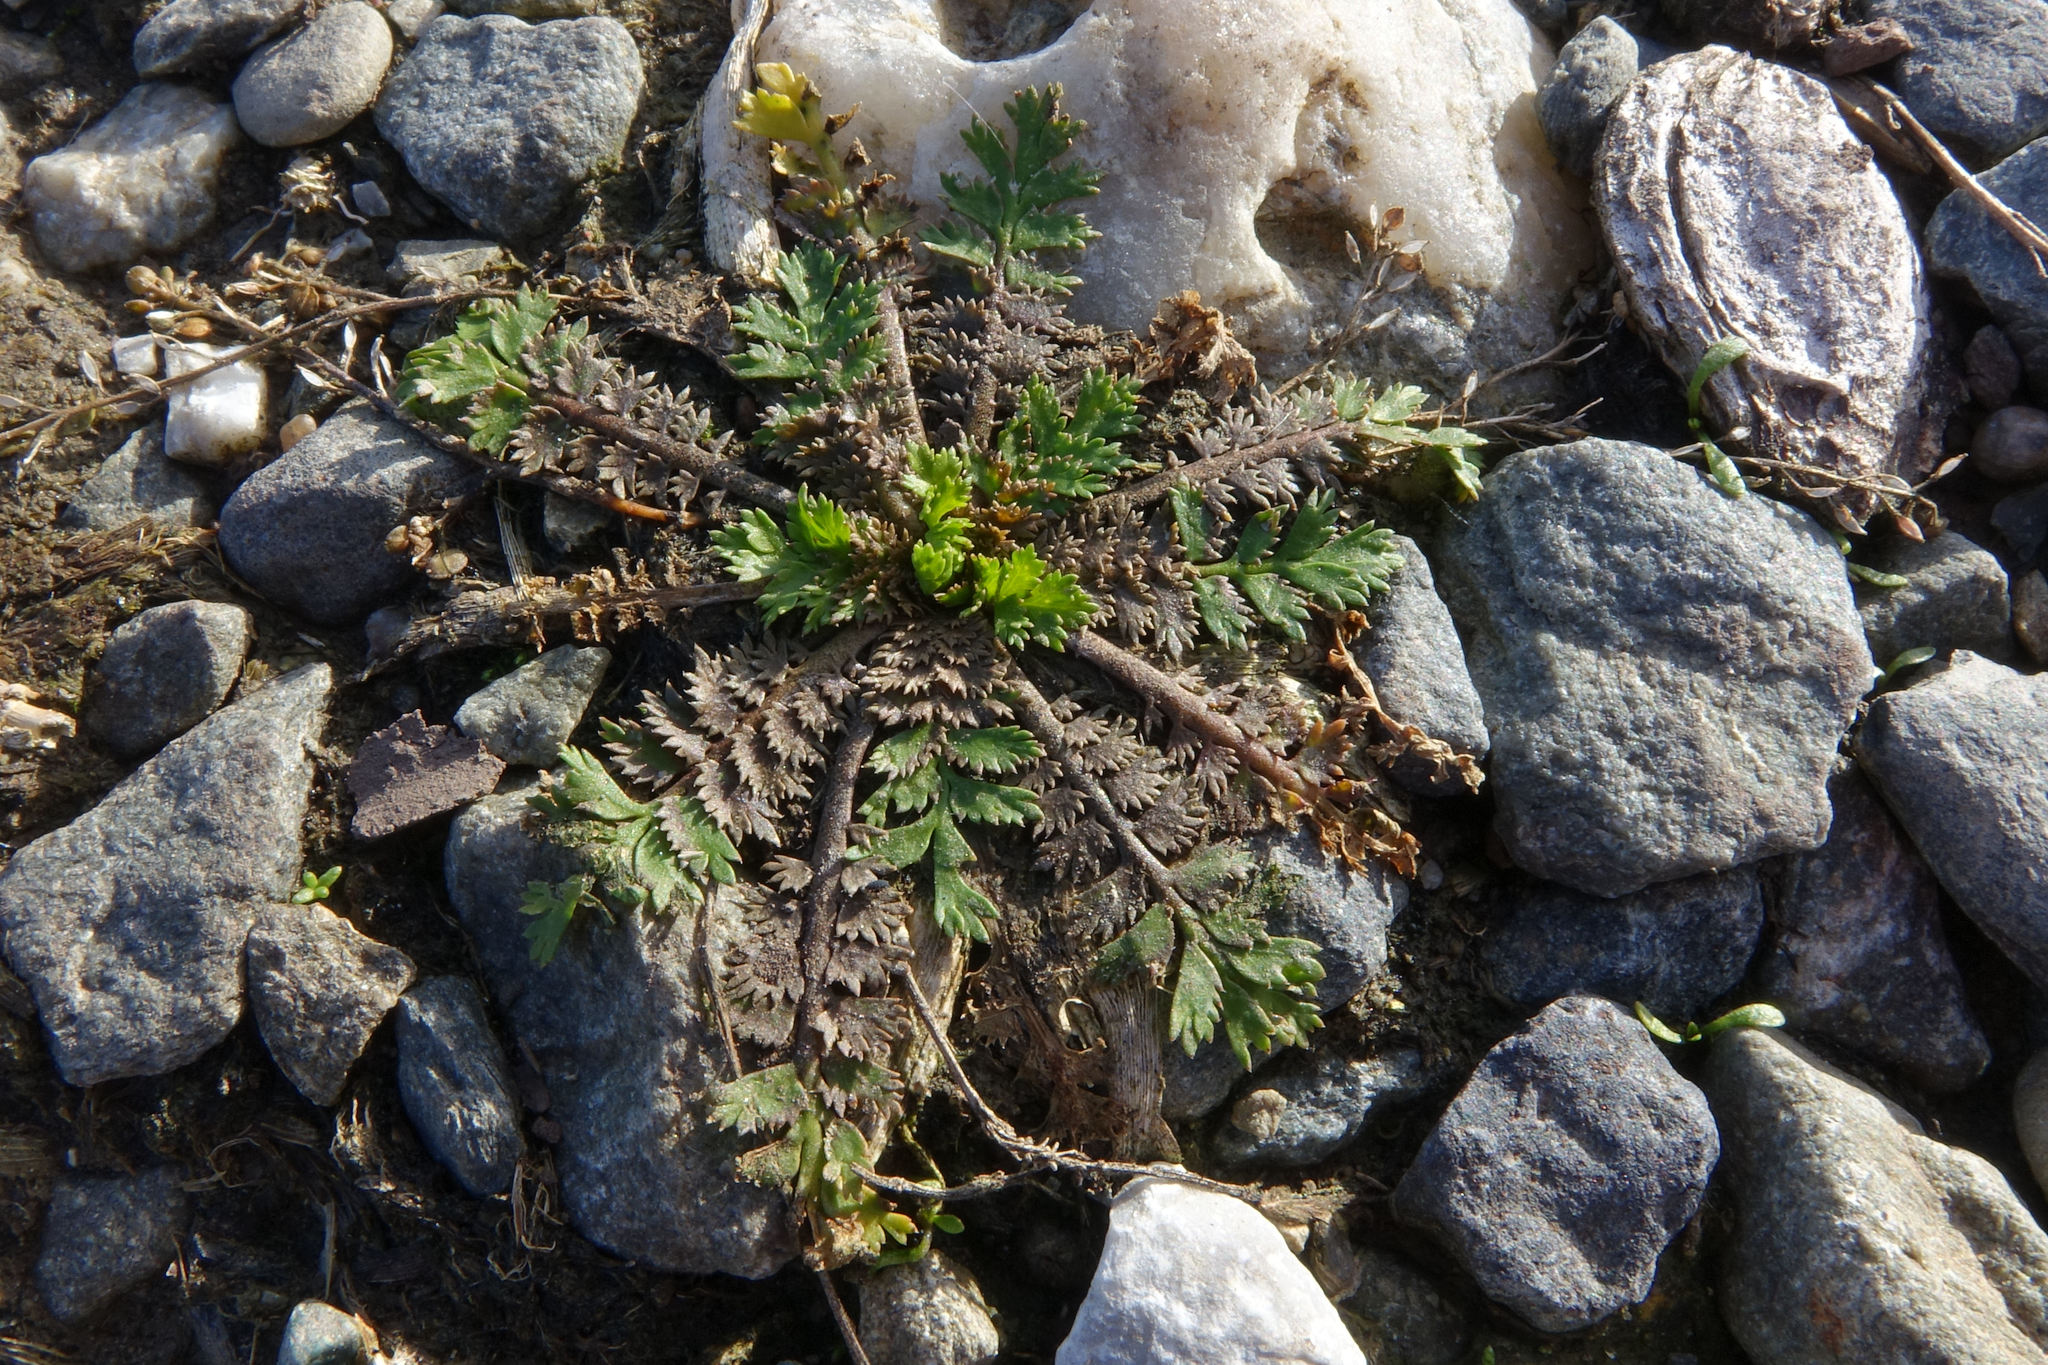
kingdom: Plantae
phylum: Tracheophyta
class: Magnoliopsida
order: Brassicales
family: Brassicaceae
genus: Lepidium
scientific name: Lepidium tenuicaule
